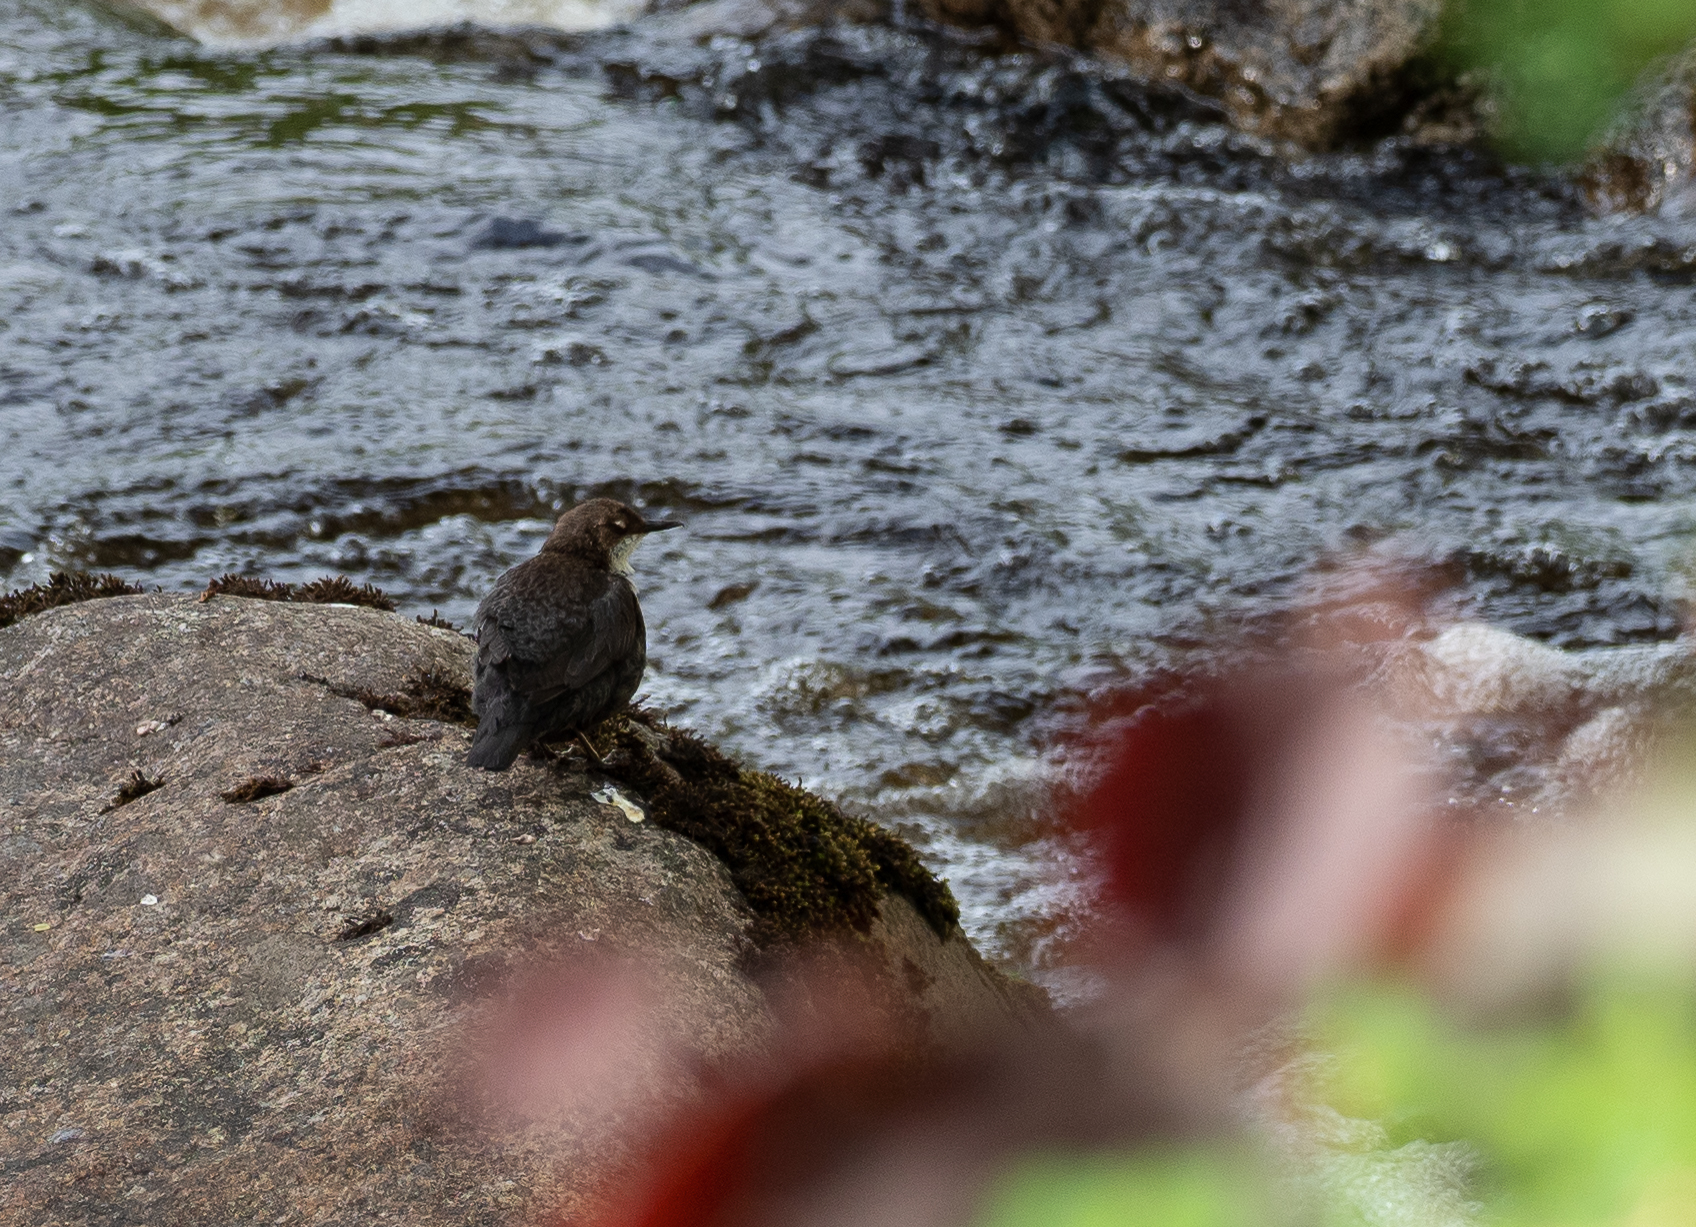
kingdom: Animalia
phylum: Chordata
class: Aves
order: Passeriformes
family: Cinclidae
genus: Cinclus
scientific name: Cinclus cinclus
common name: White-throated dipper
